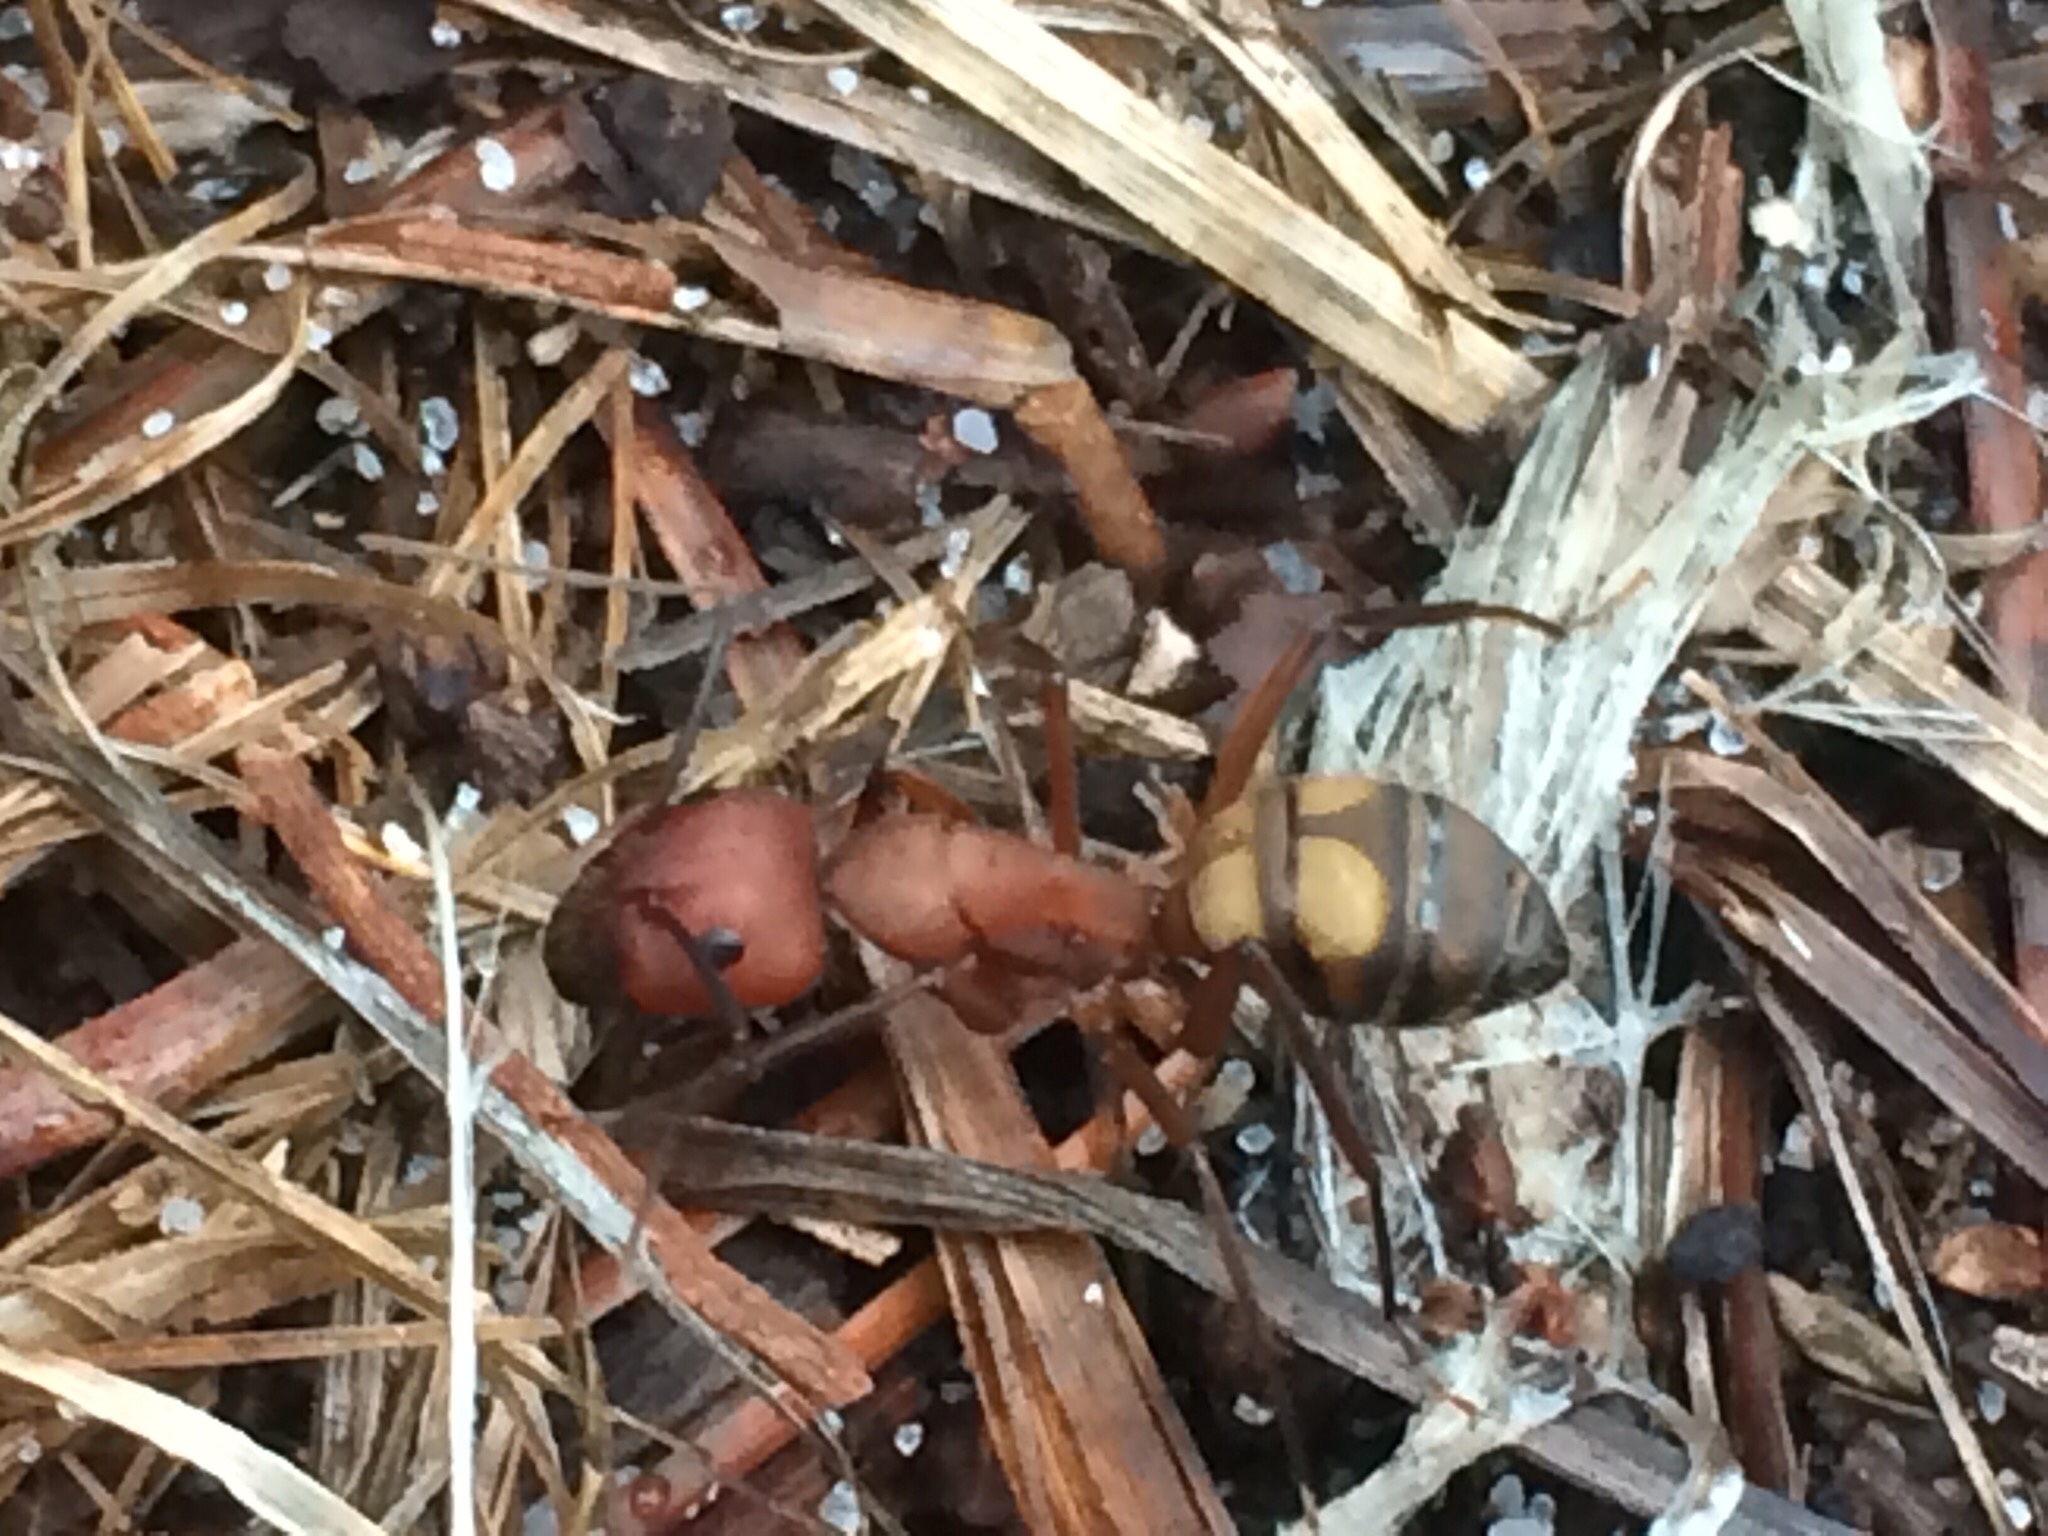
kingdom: Animalia
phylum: Arthropoda
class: Insecta
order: Hymenoptera
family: Formicidae
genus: Camponotus
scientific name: Camponotus socius
